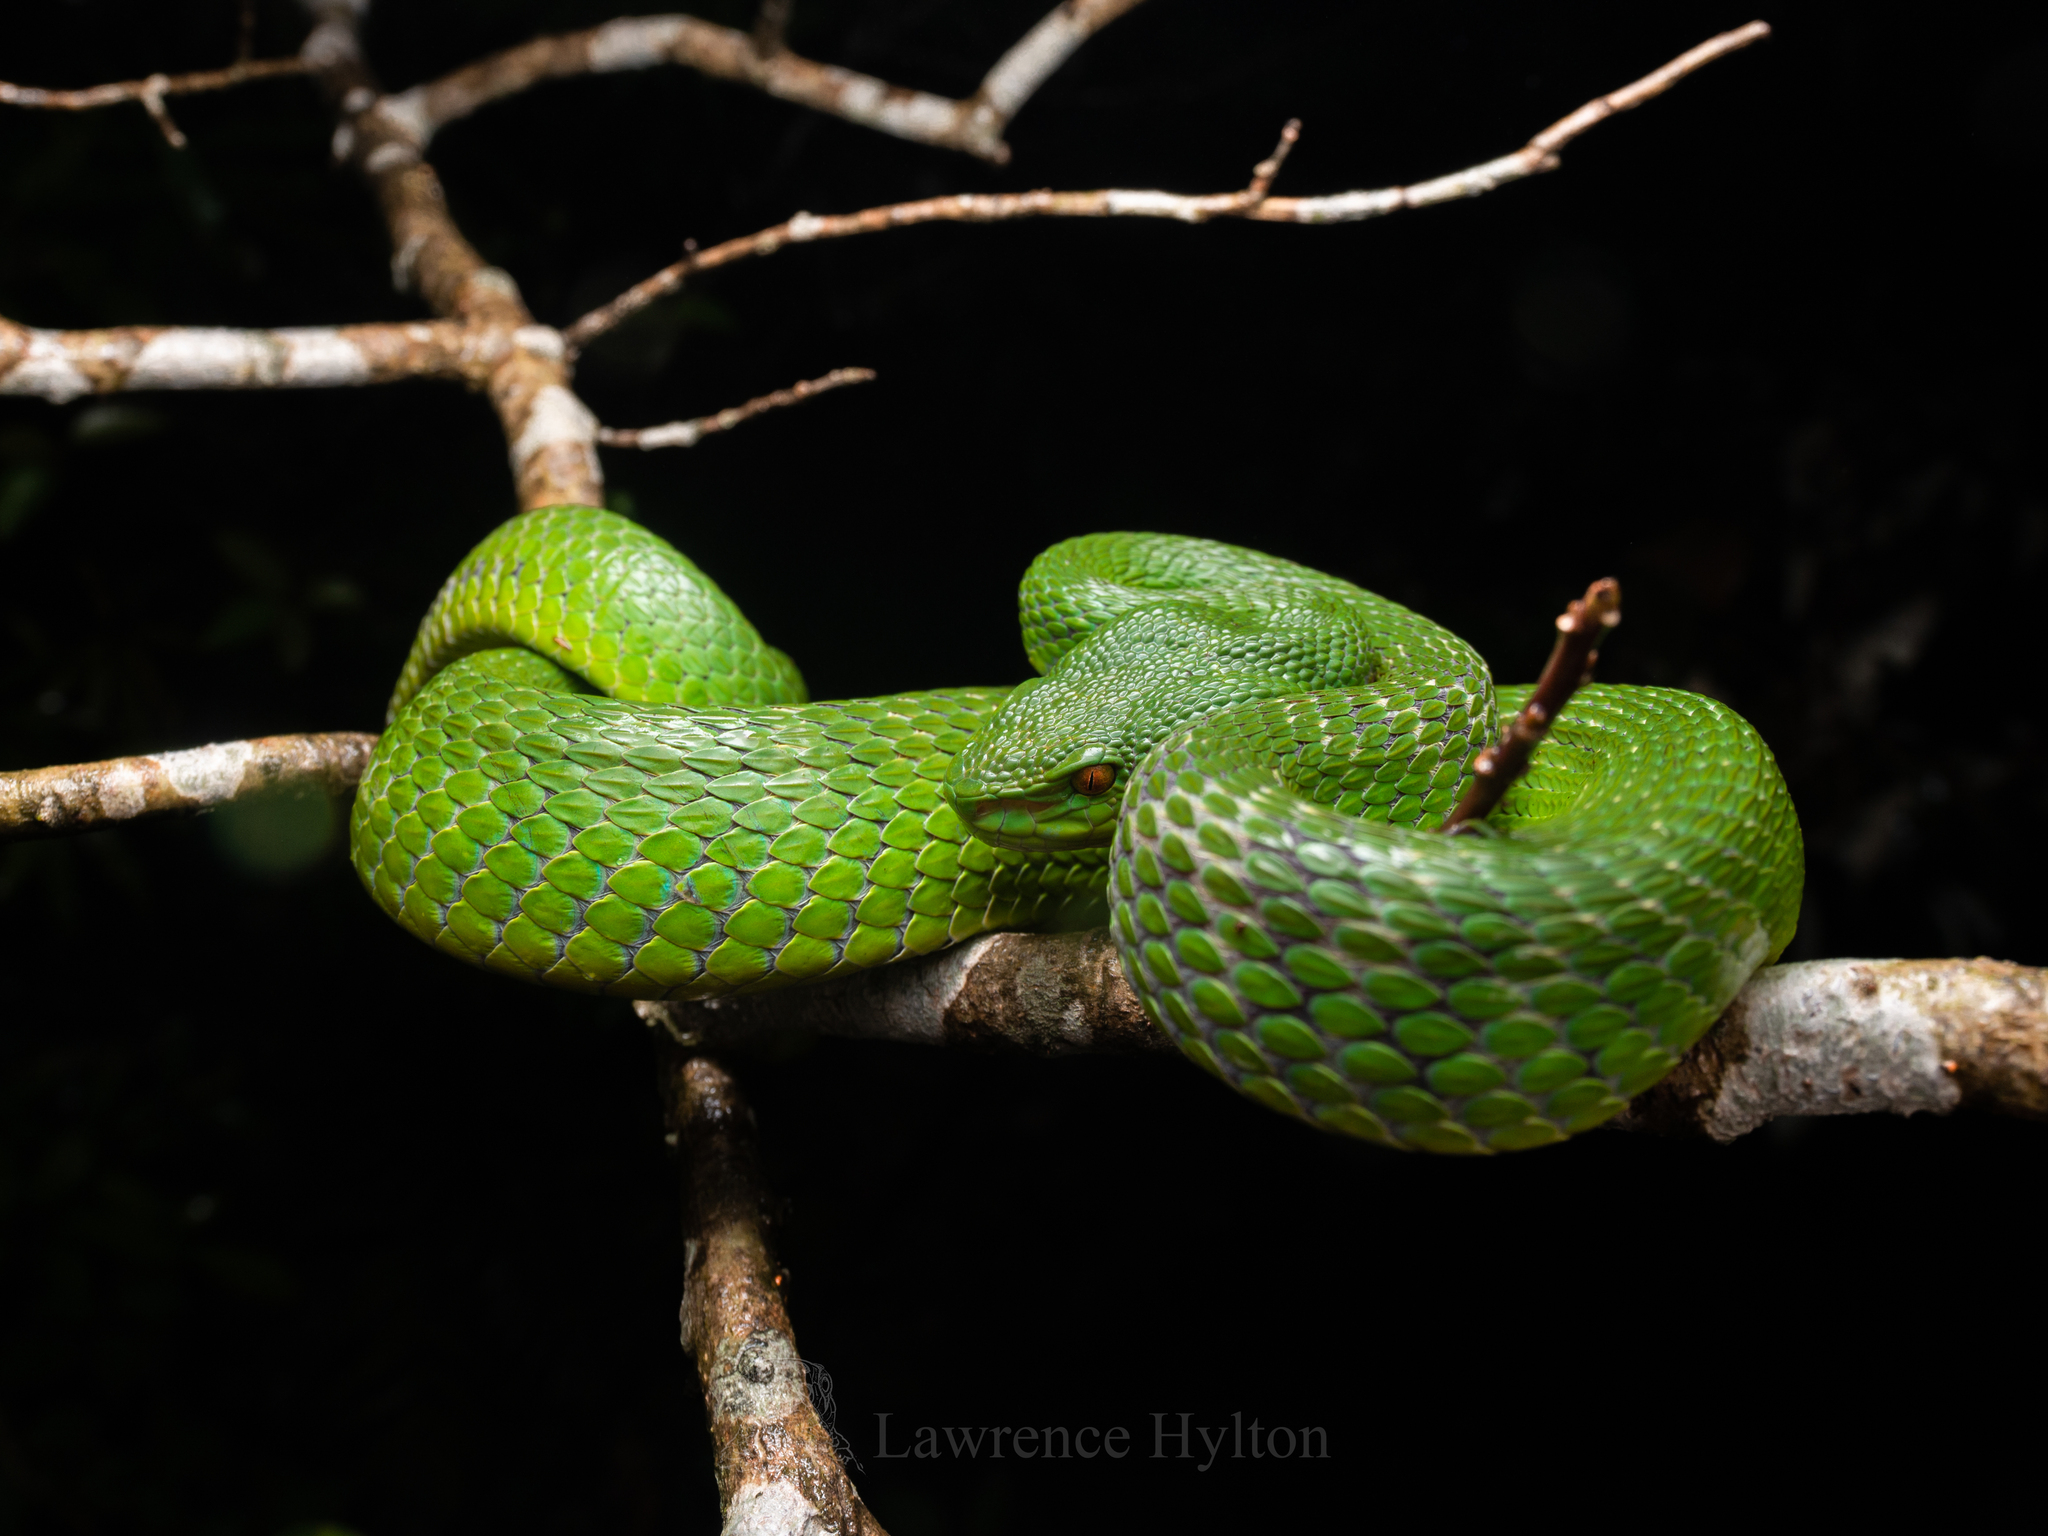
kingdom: Animalia
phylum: Chordata
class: Squamata
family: Viperidae
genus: Trimeresurus
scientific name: Trimeresurus albolabris
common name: White-lipped pitviper
